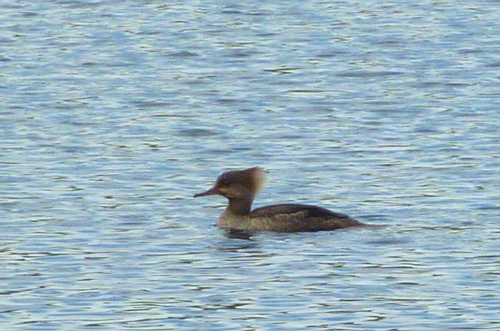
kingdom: Animalia
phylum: Chordata
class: Aves
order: Anseriformes
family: Anatidae
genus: Lophodytes
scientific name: Lophodytes cucullatus
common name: Hooded merganser
